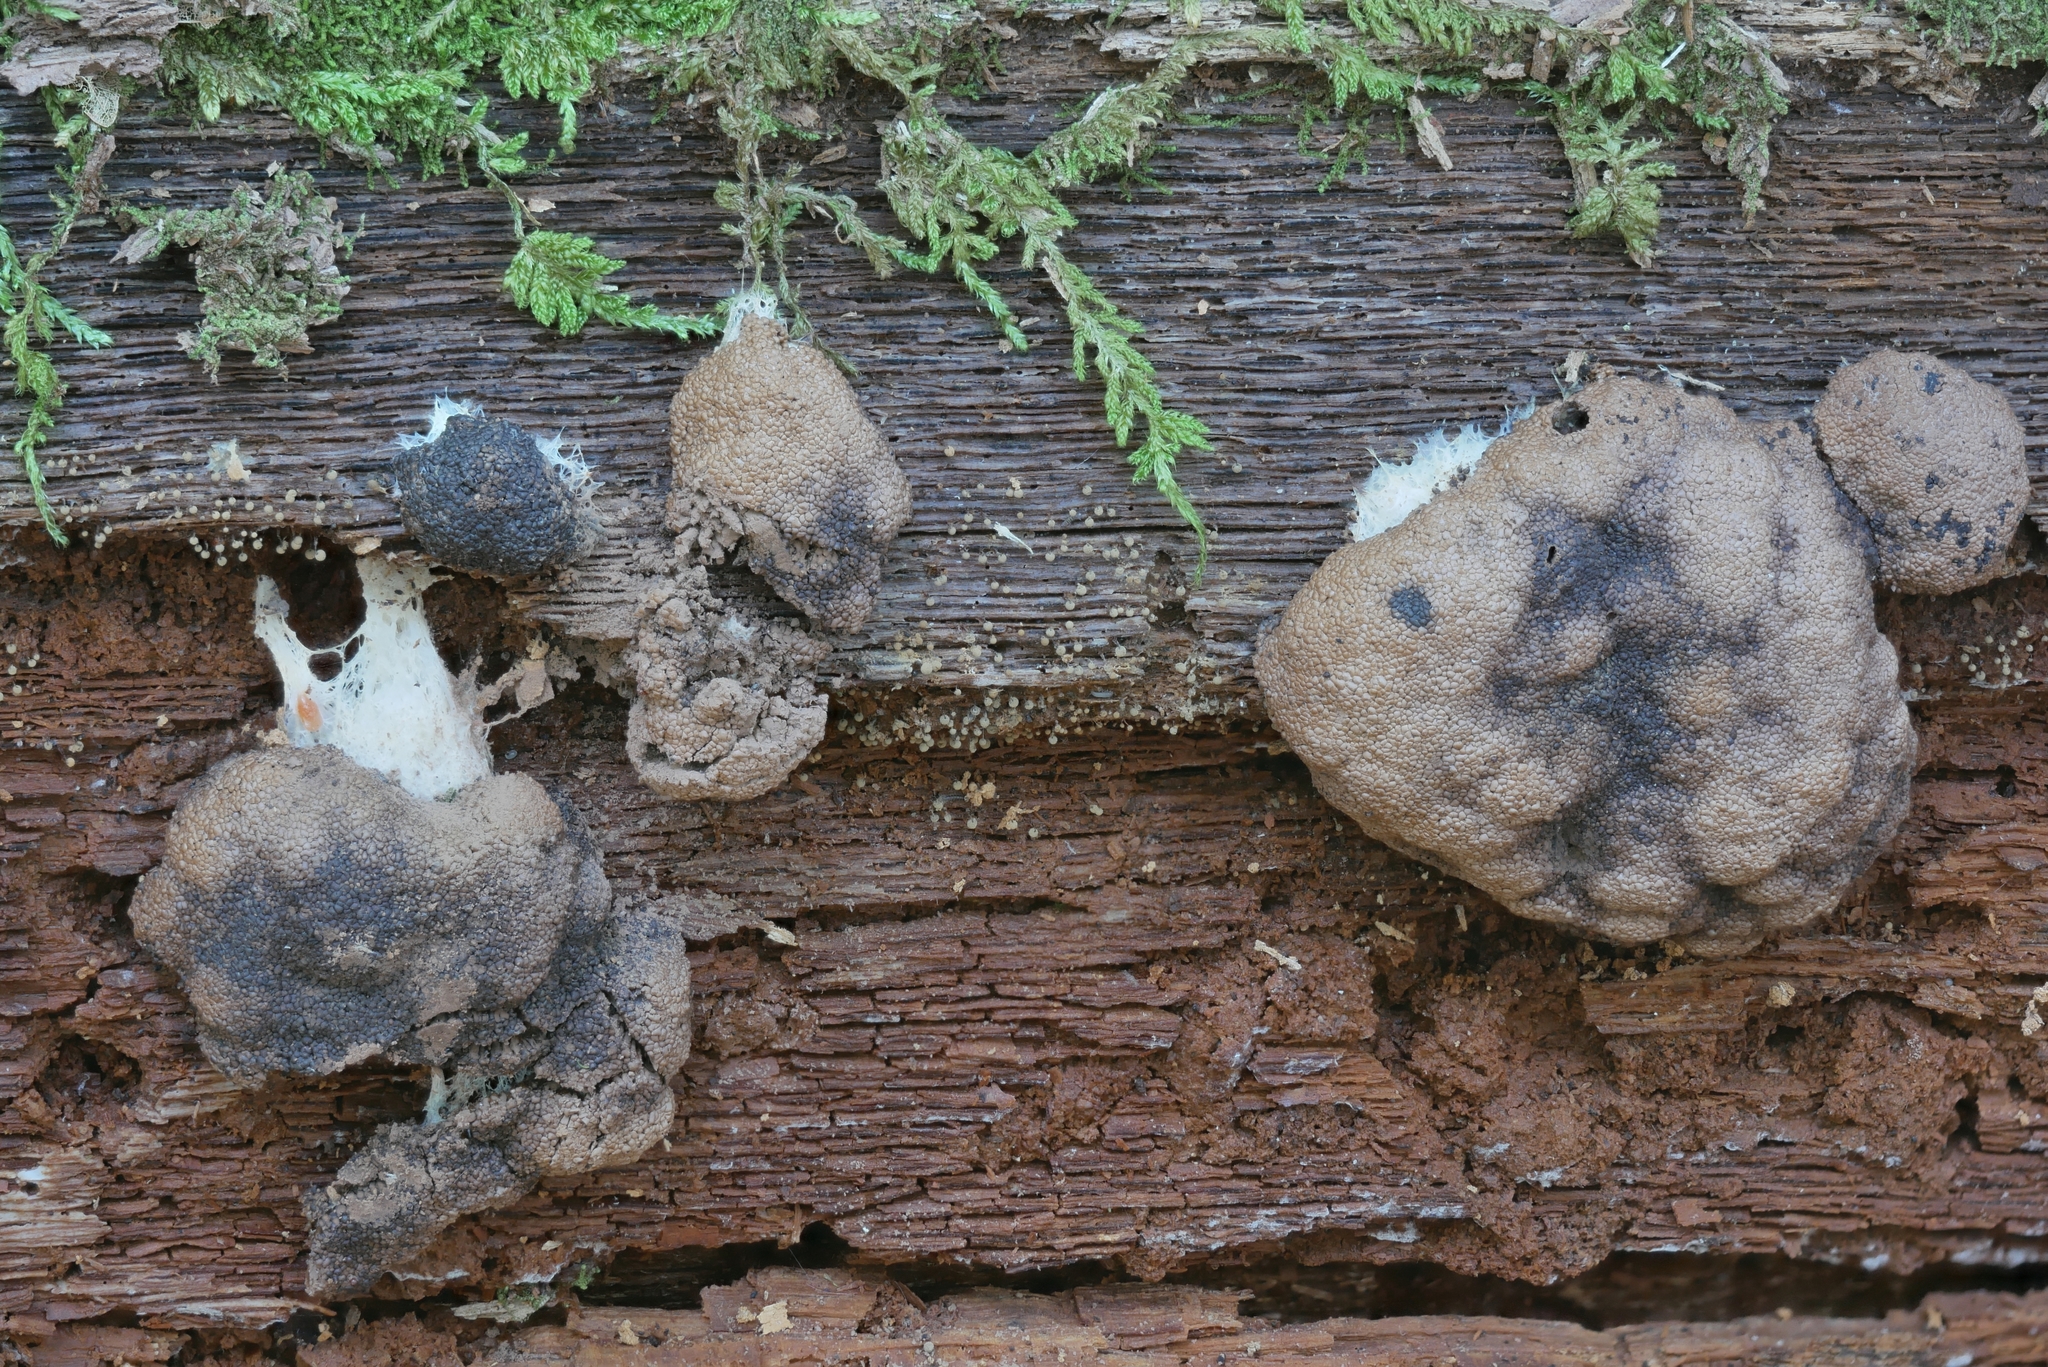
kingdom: Protozoa
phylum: Mycetozoa
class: Myxomycetes
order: Cribrariales
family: Tubiferaceae
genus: Tubifera
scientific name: Tubifera magna
